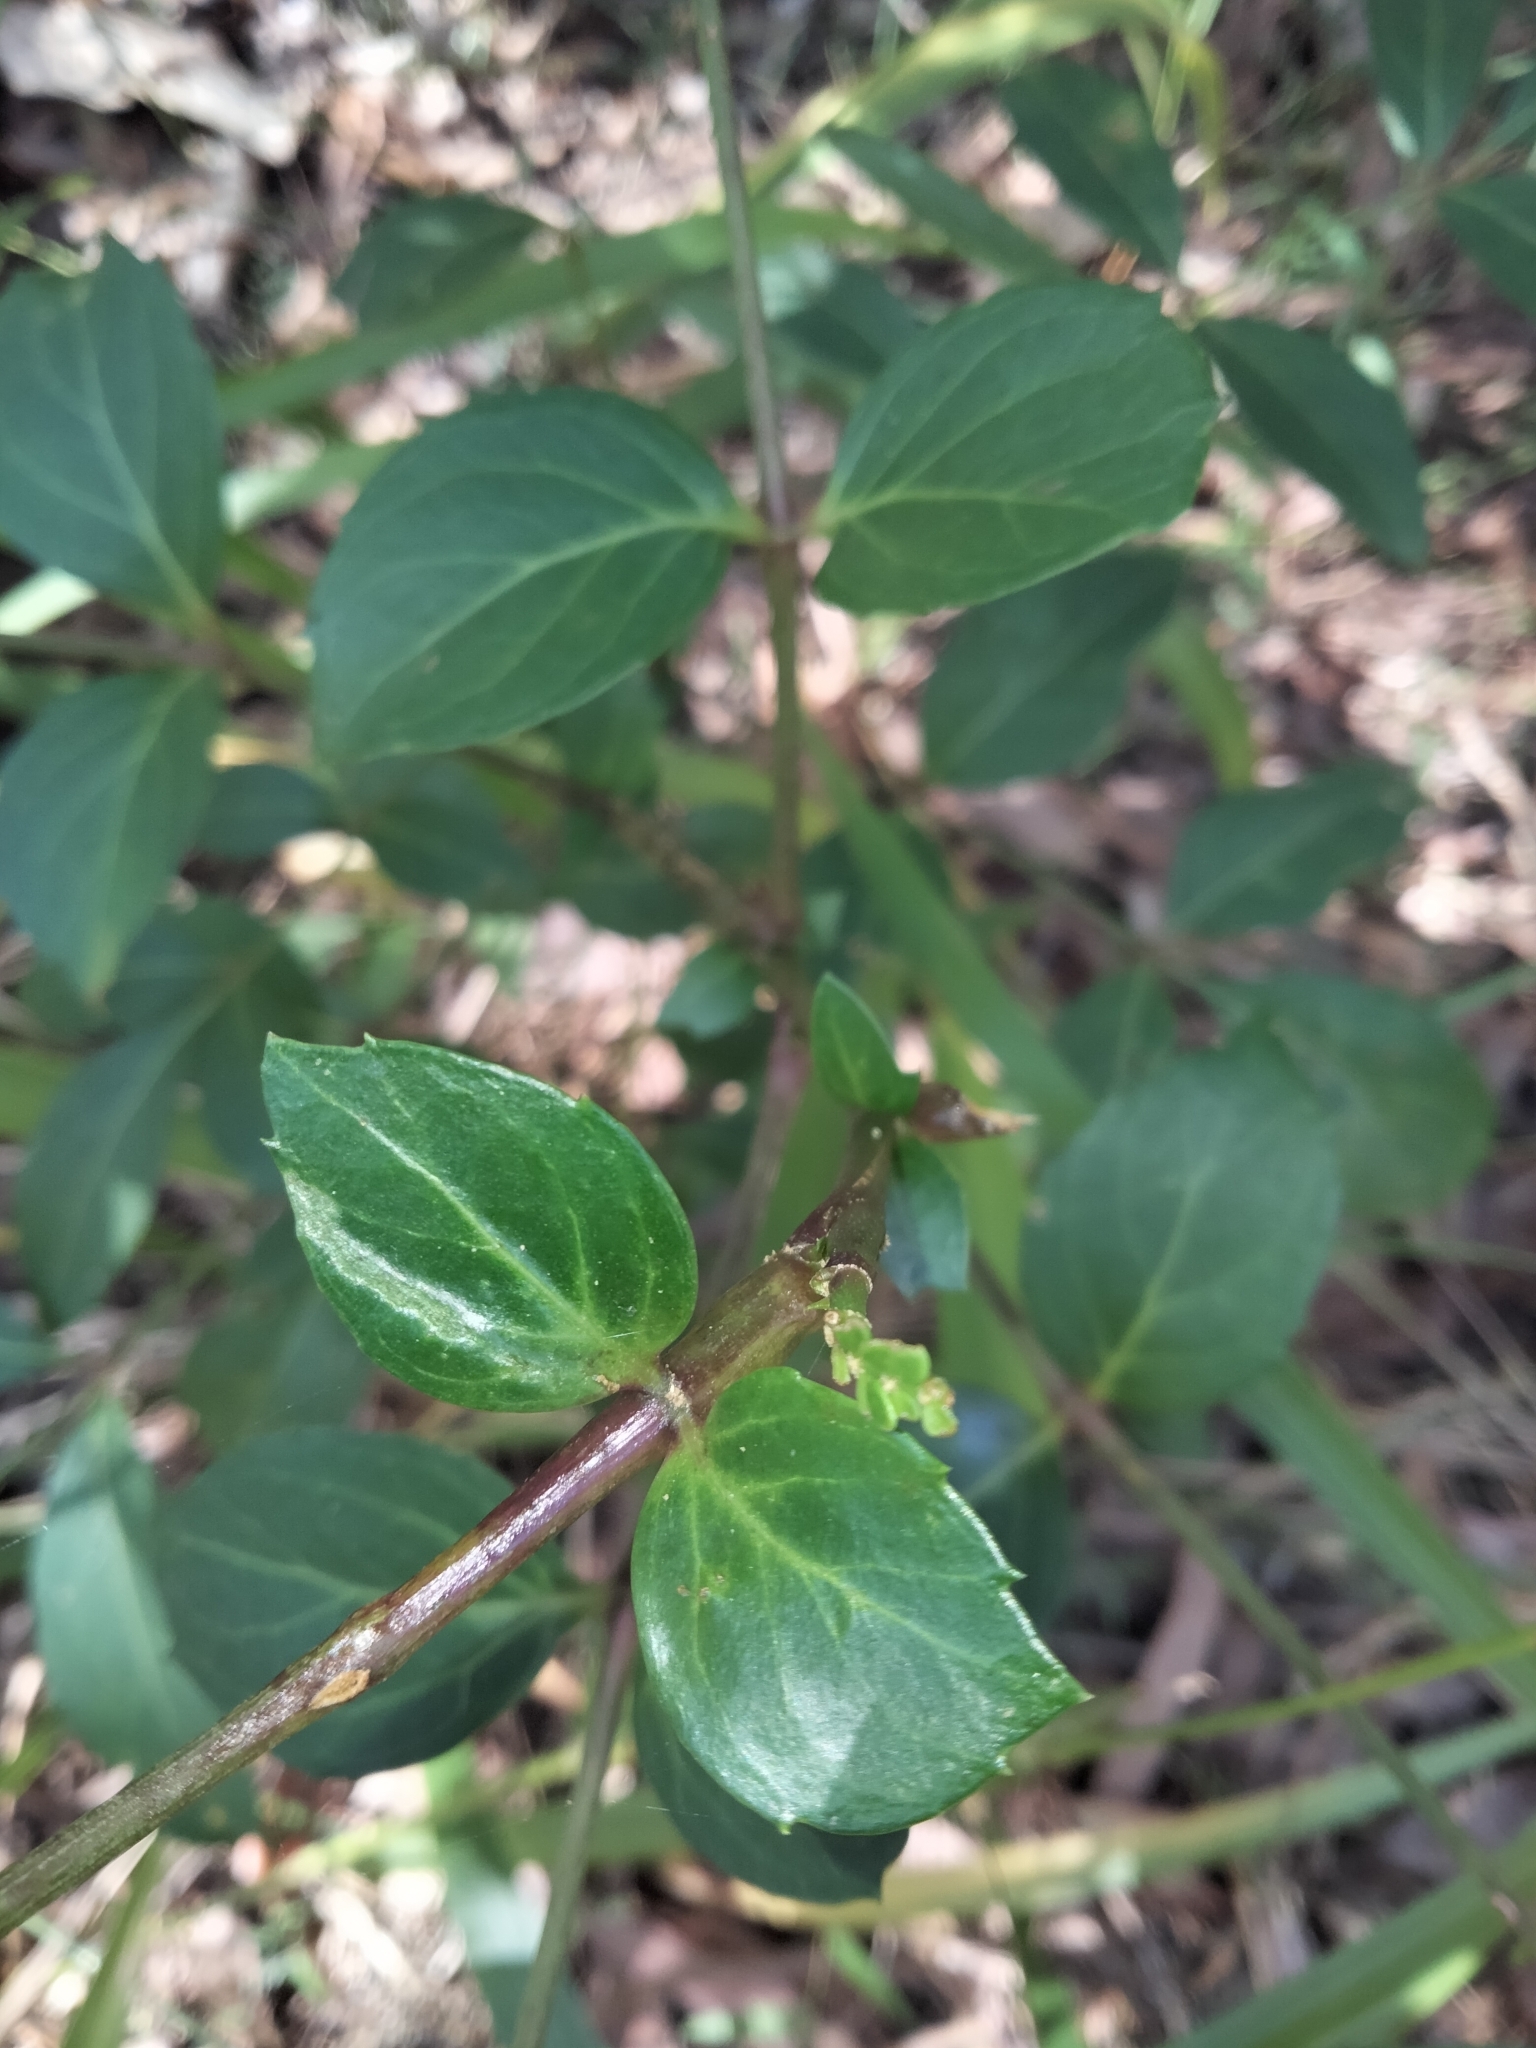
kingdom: Plantae
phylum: Tracheophyta
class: Magnoliopsida
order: Apiales
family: Araliaceae
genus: Polyscias
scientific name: Polyscias sambucifolia
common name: Elderberry-ash
